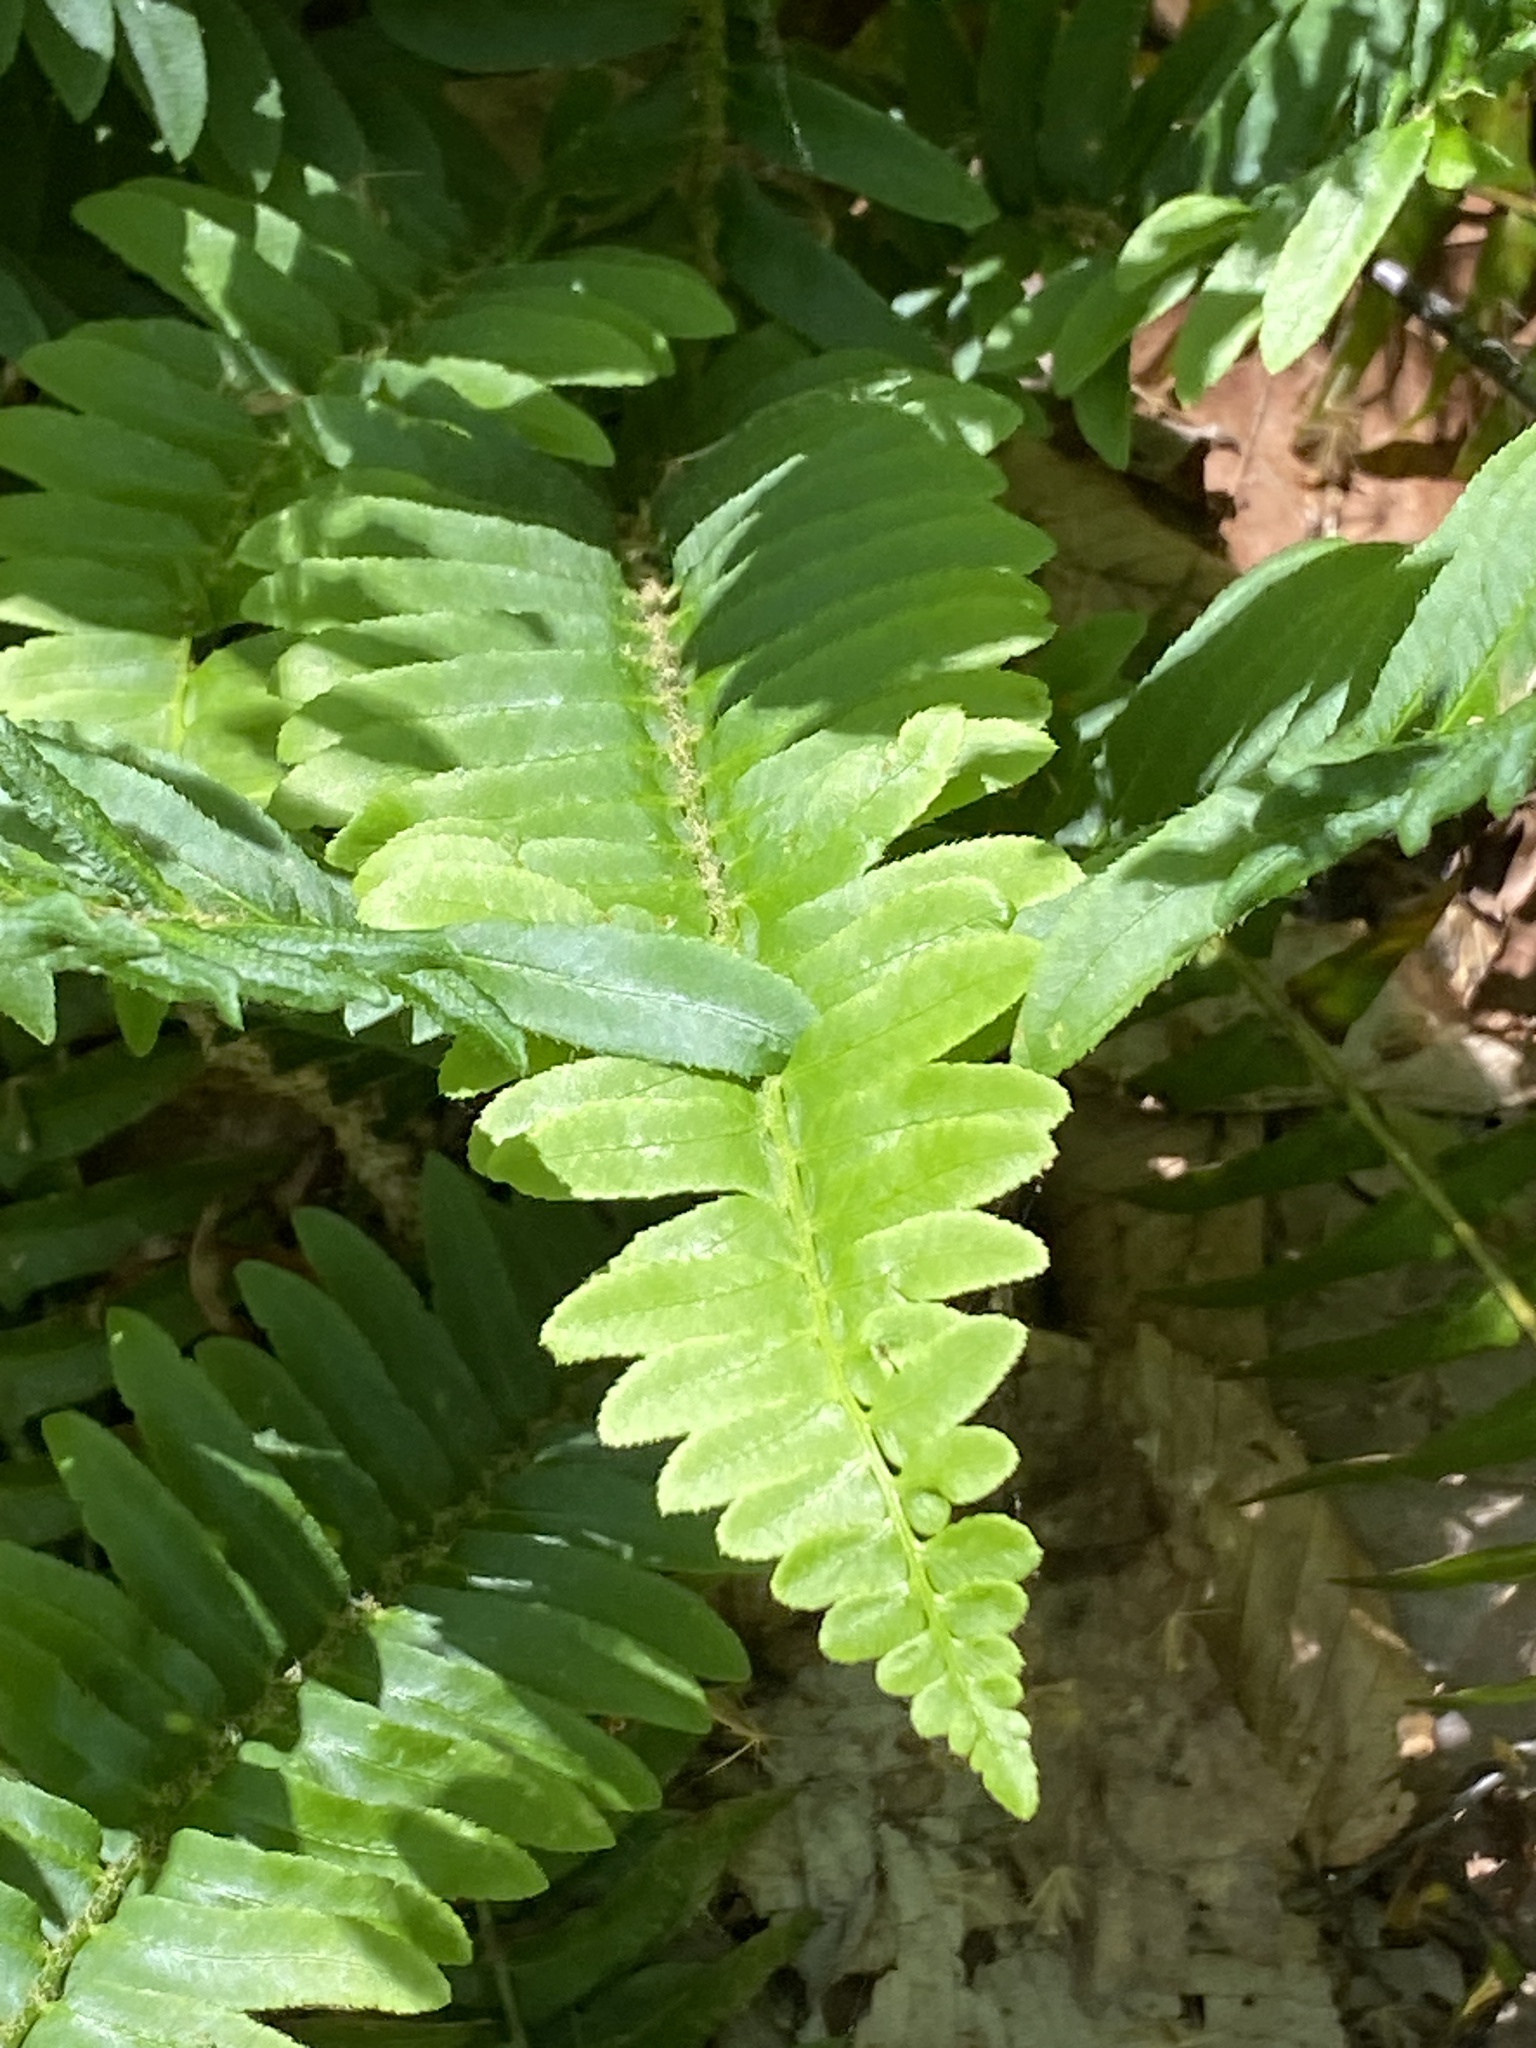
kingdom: Plantae
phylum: Tracheophyta
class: Polypodiopsida
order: Polypodiales
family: Dryopteridaceae
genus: Polystichum
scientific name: Polystichum acrostichoides
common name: Christmas fern
